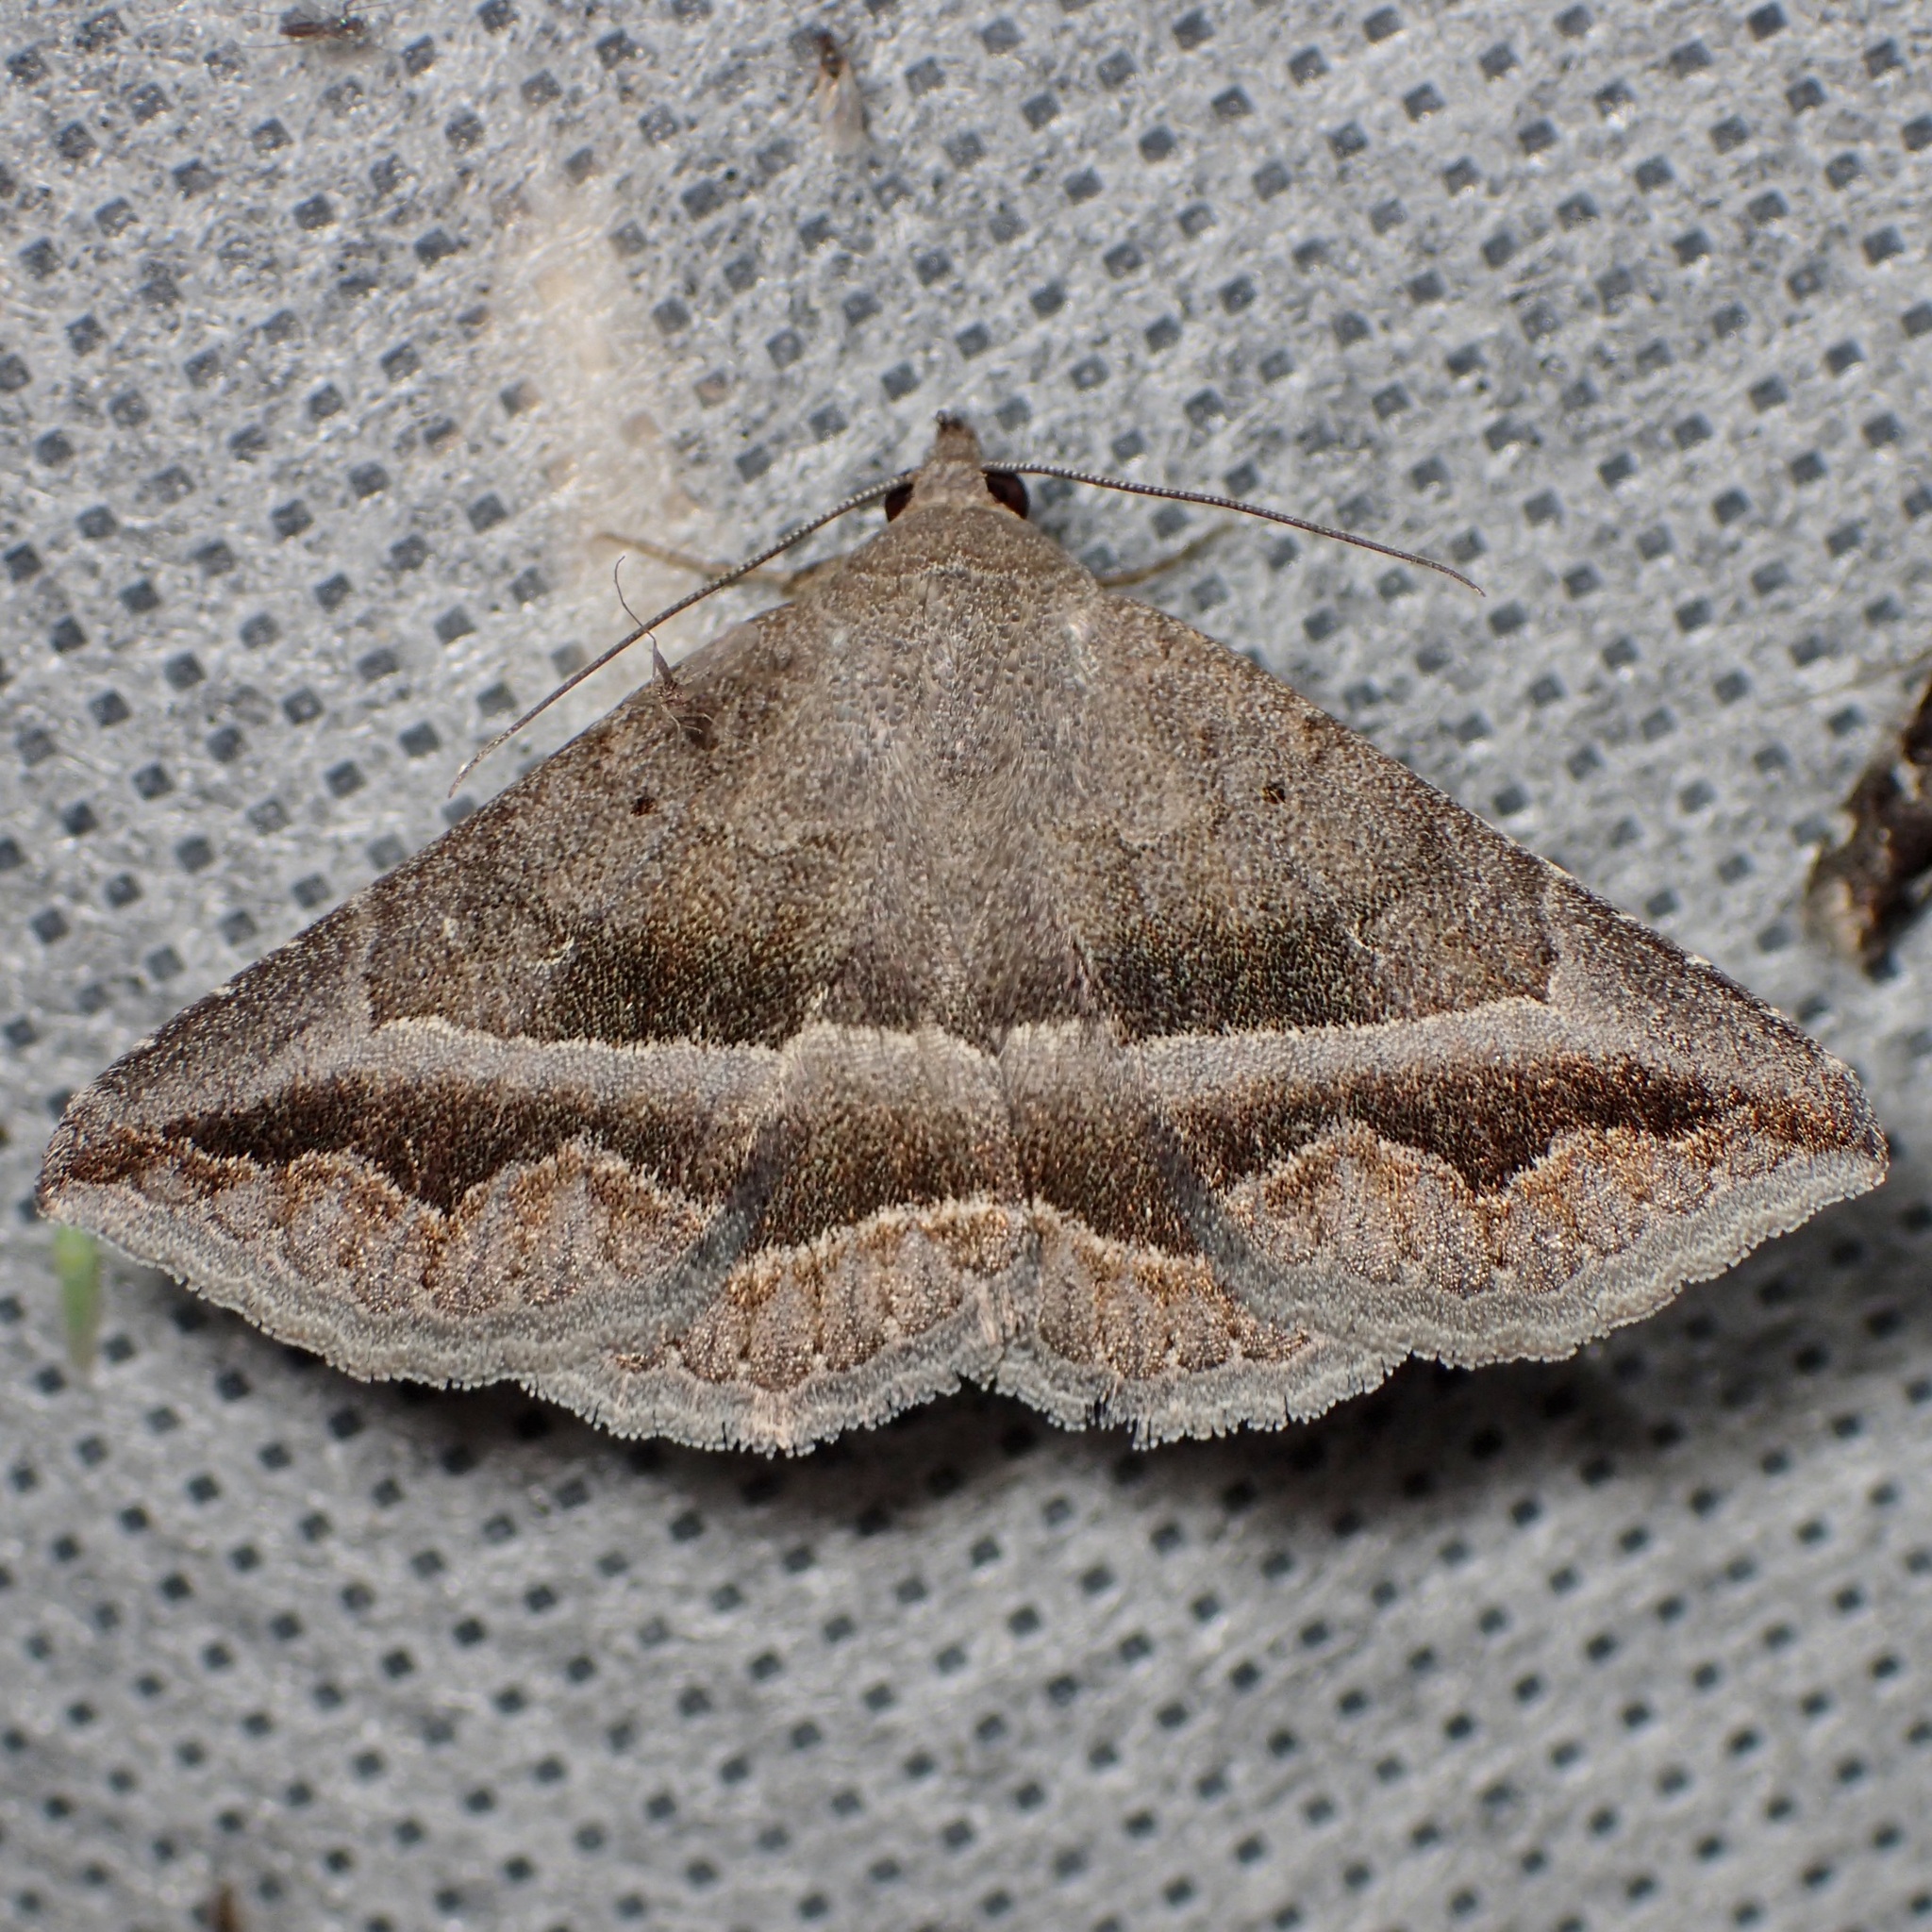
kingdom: Animalia
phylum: Arthropoda
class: Insecta
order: Lepidoptera
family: Erebidae
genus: Lesmone
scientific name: Lesmone griseipennis
